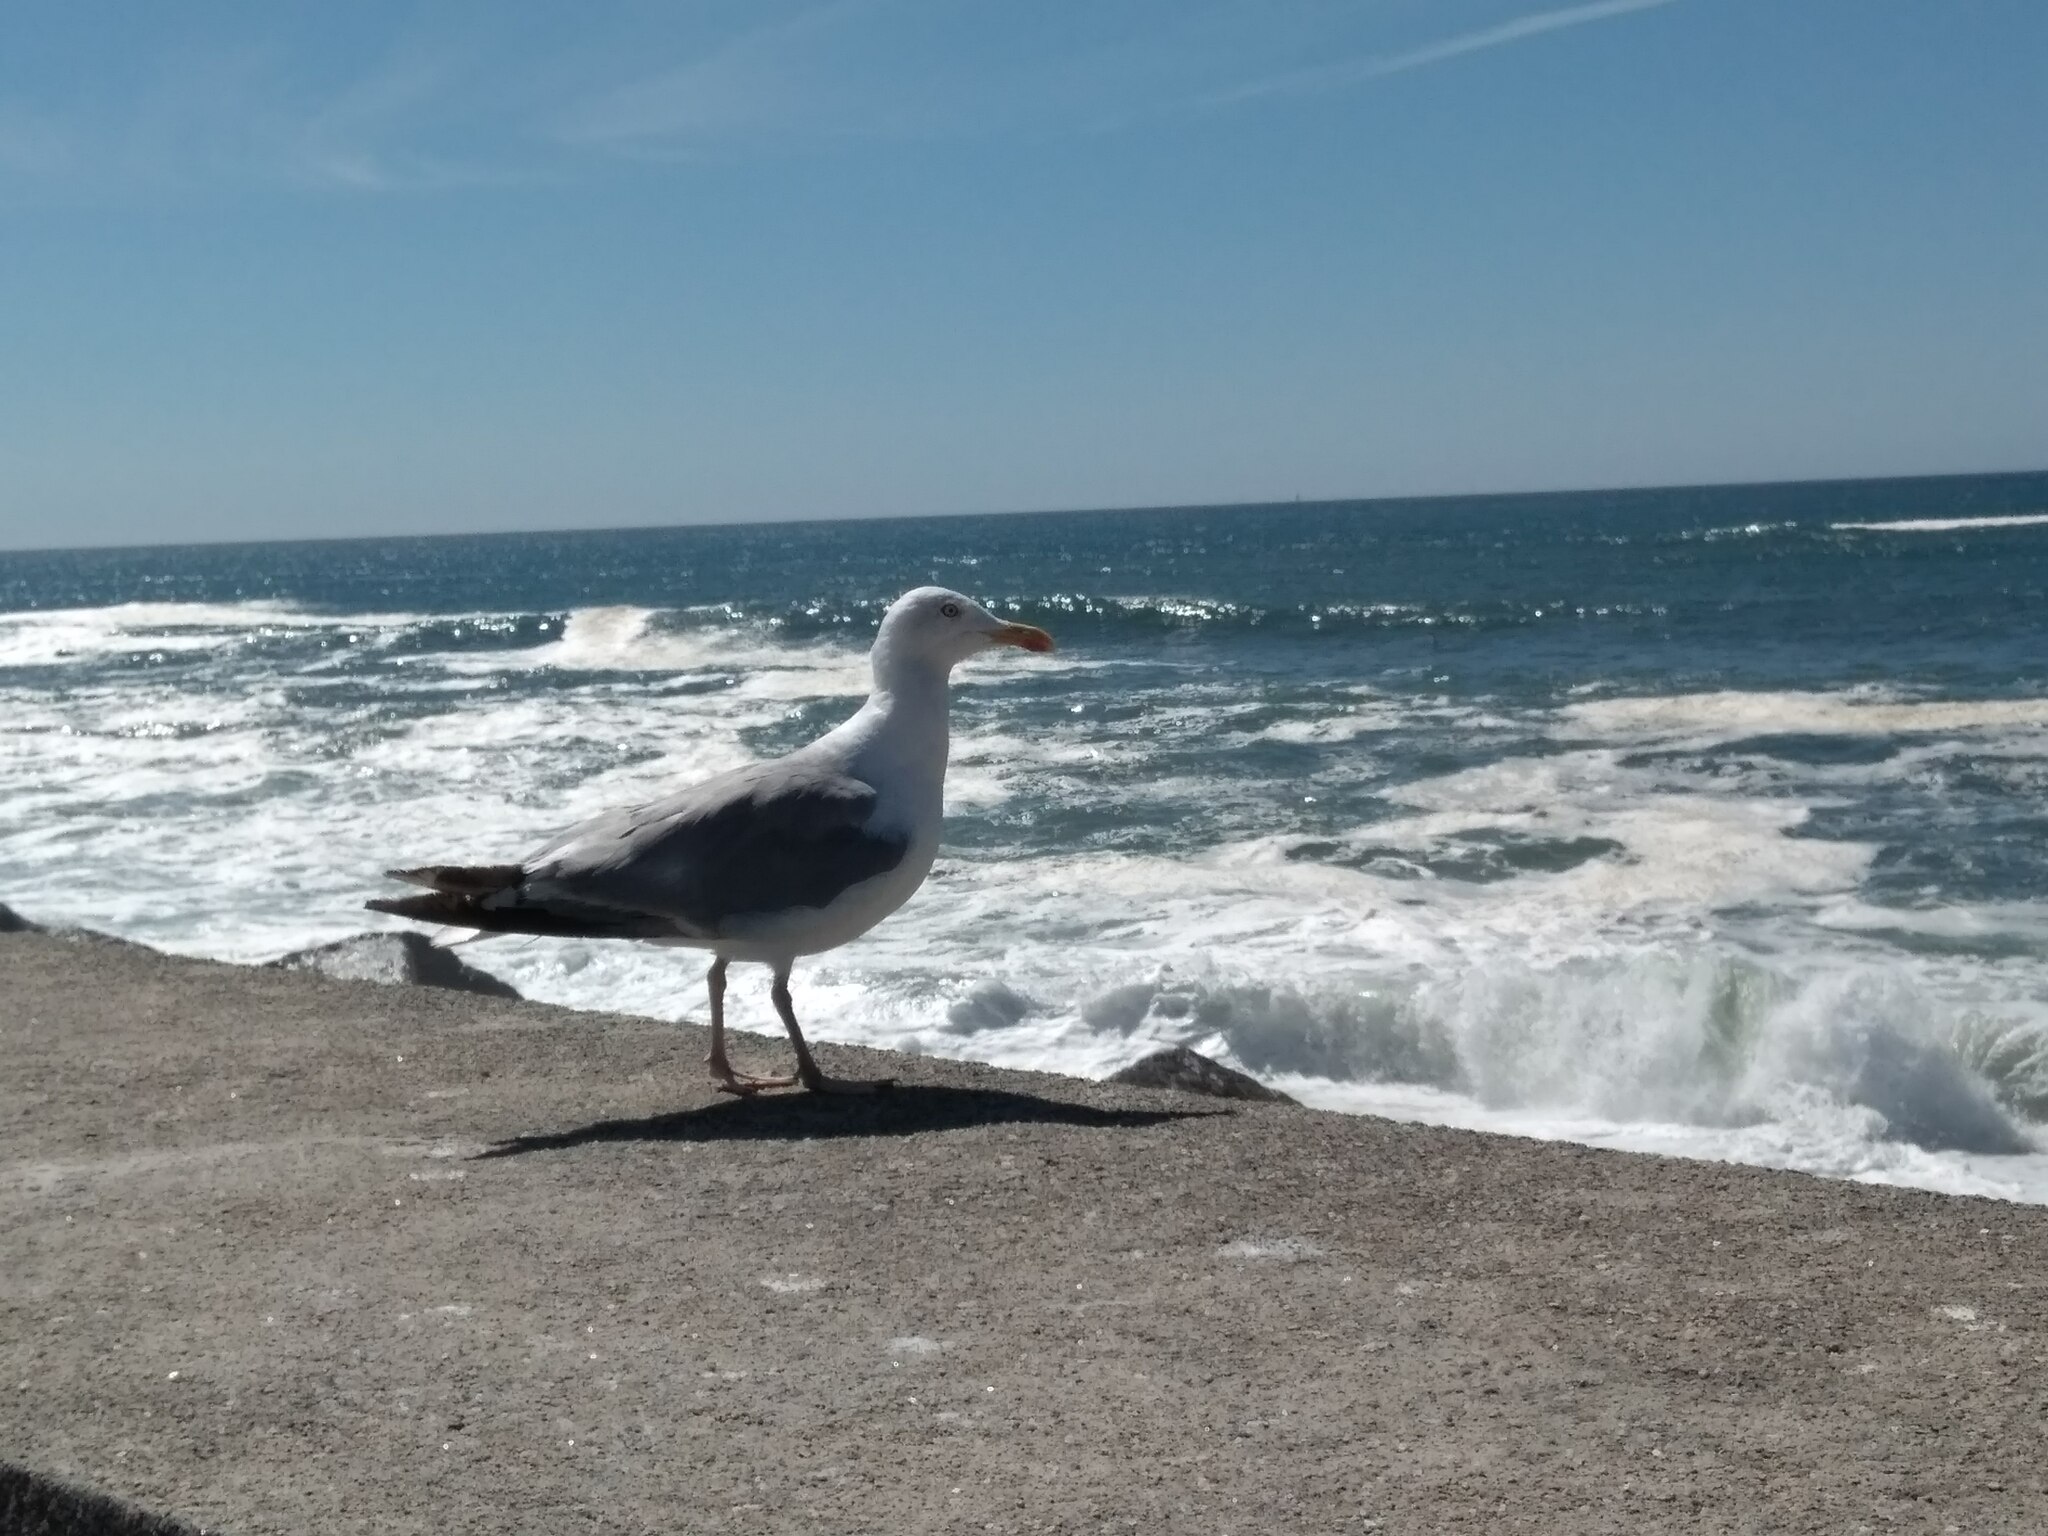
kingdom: Animalia
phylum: Chordata
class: Aves
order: Charadriiformes
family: Laridae
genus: Larus
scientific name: Larus michahellis
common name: Yellow-legged gull
